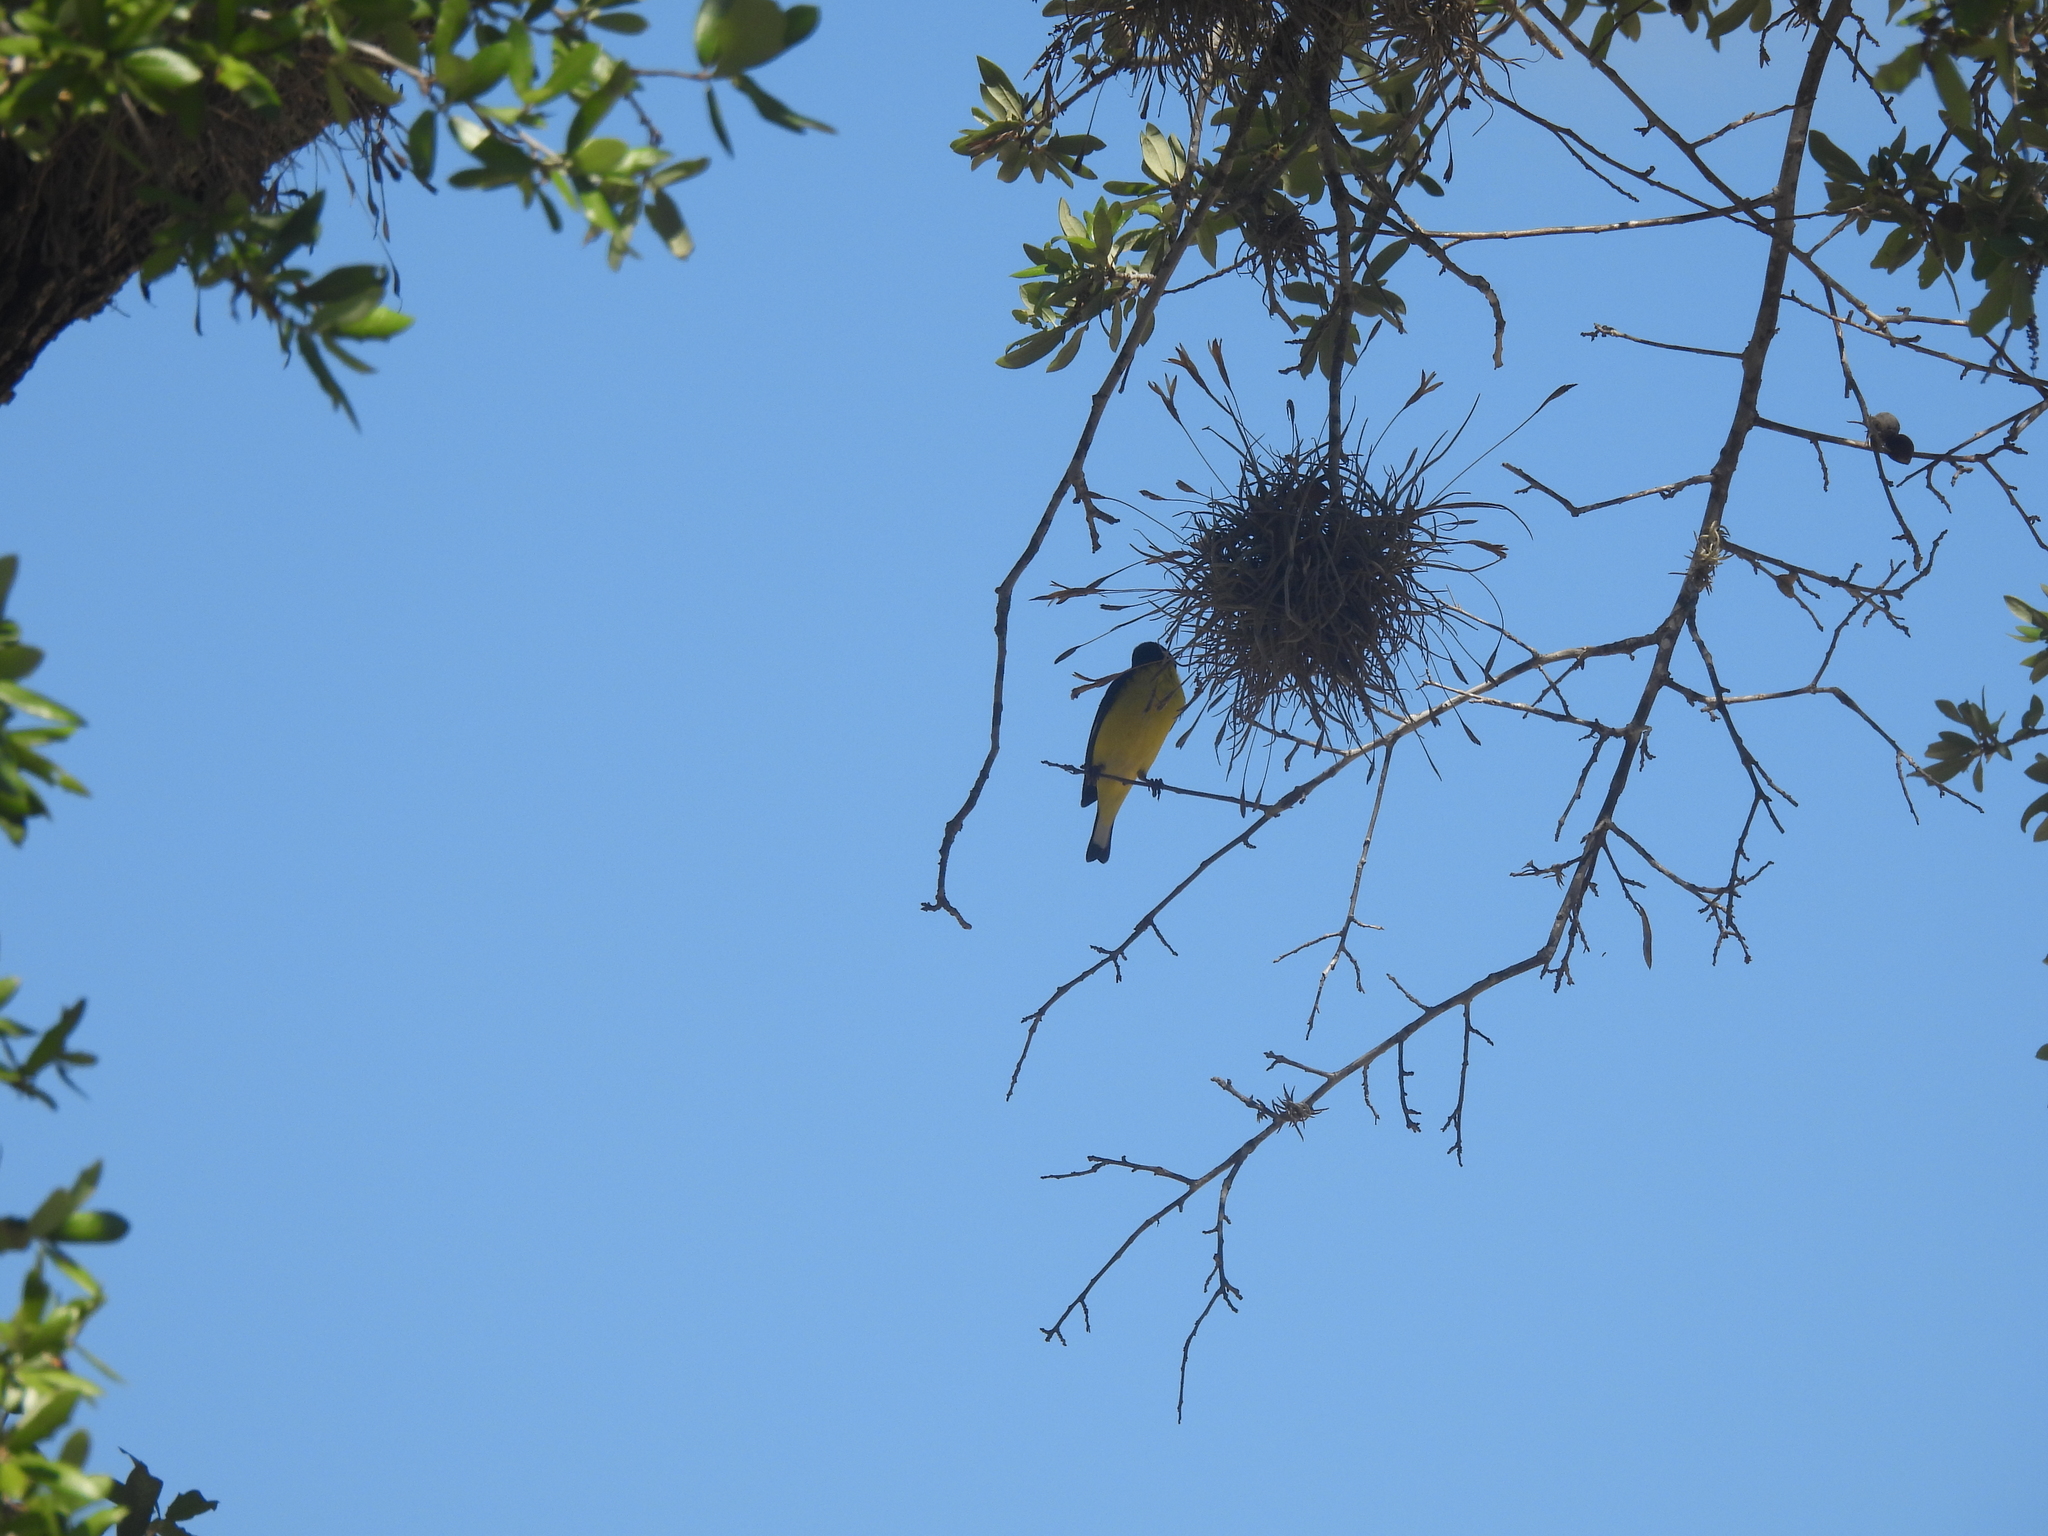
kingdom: Animalia
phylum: Chordata
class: Aves
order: Passeriformes
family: Fringillidae
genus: Spinus
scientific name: Spinus psaltria
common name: Lesser goldfinch
